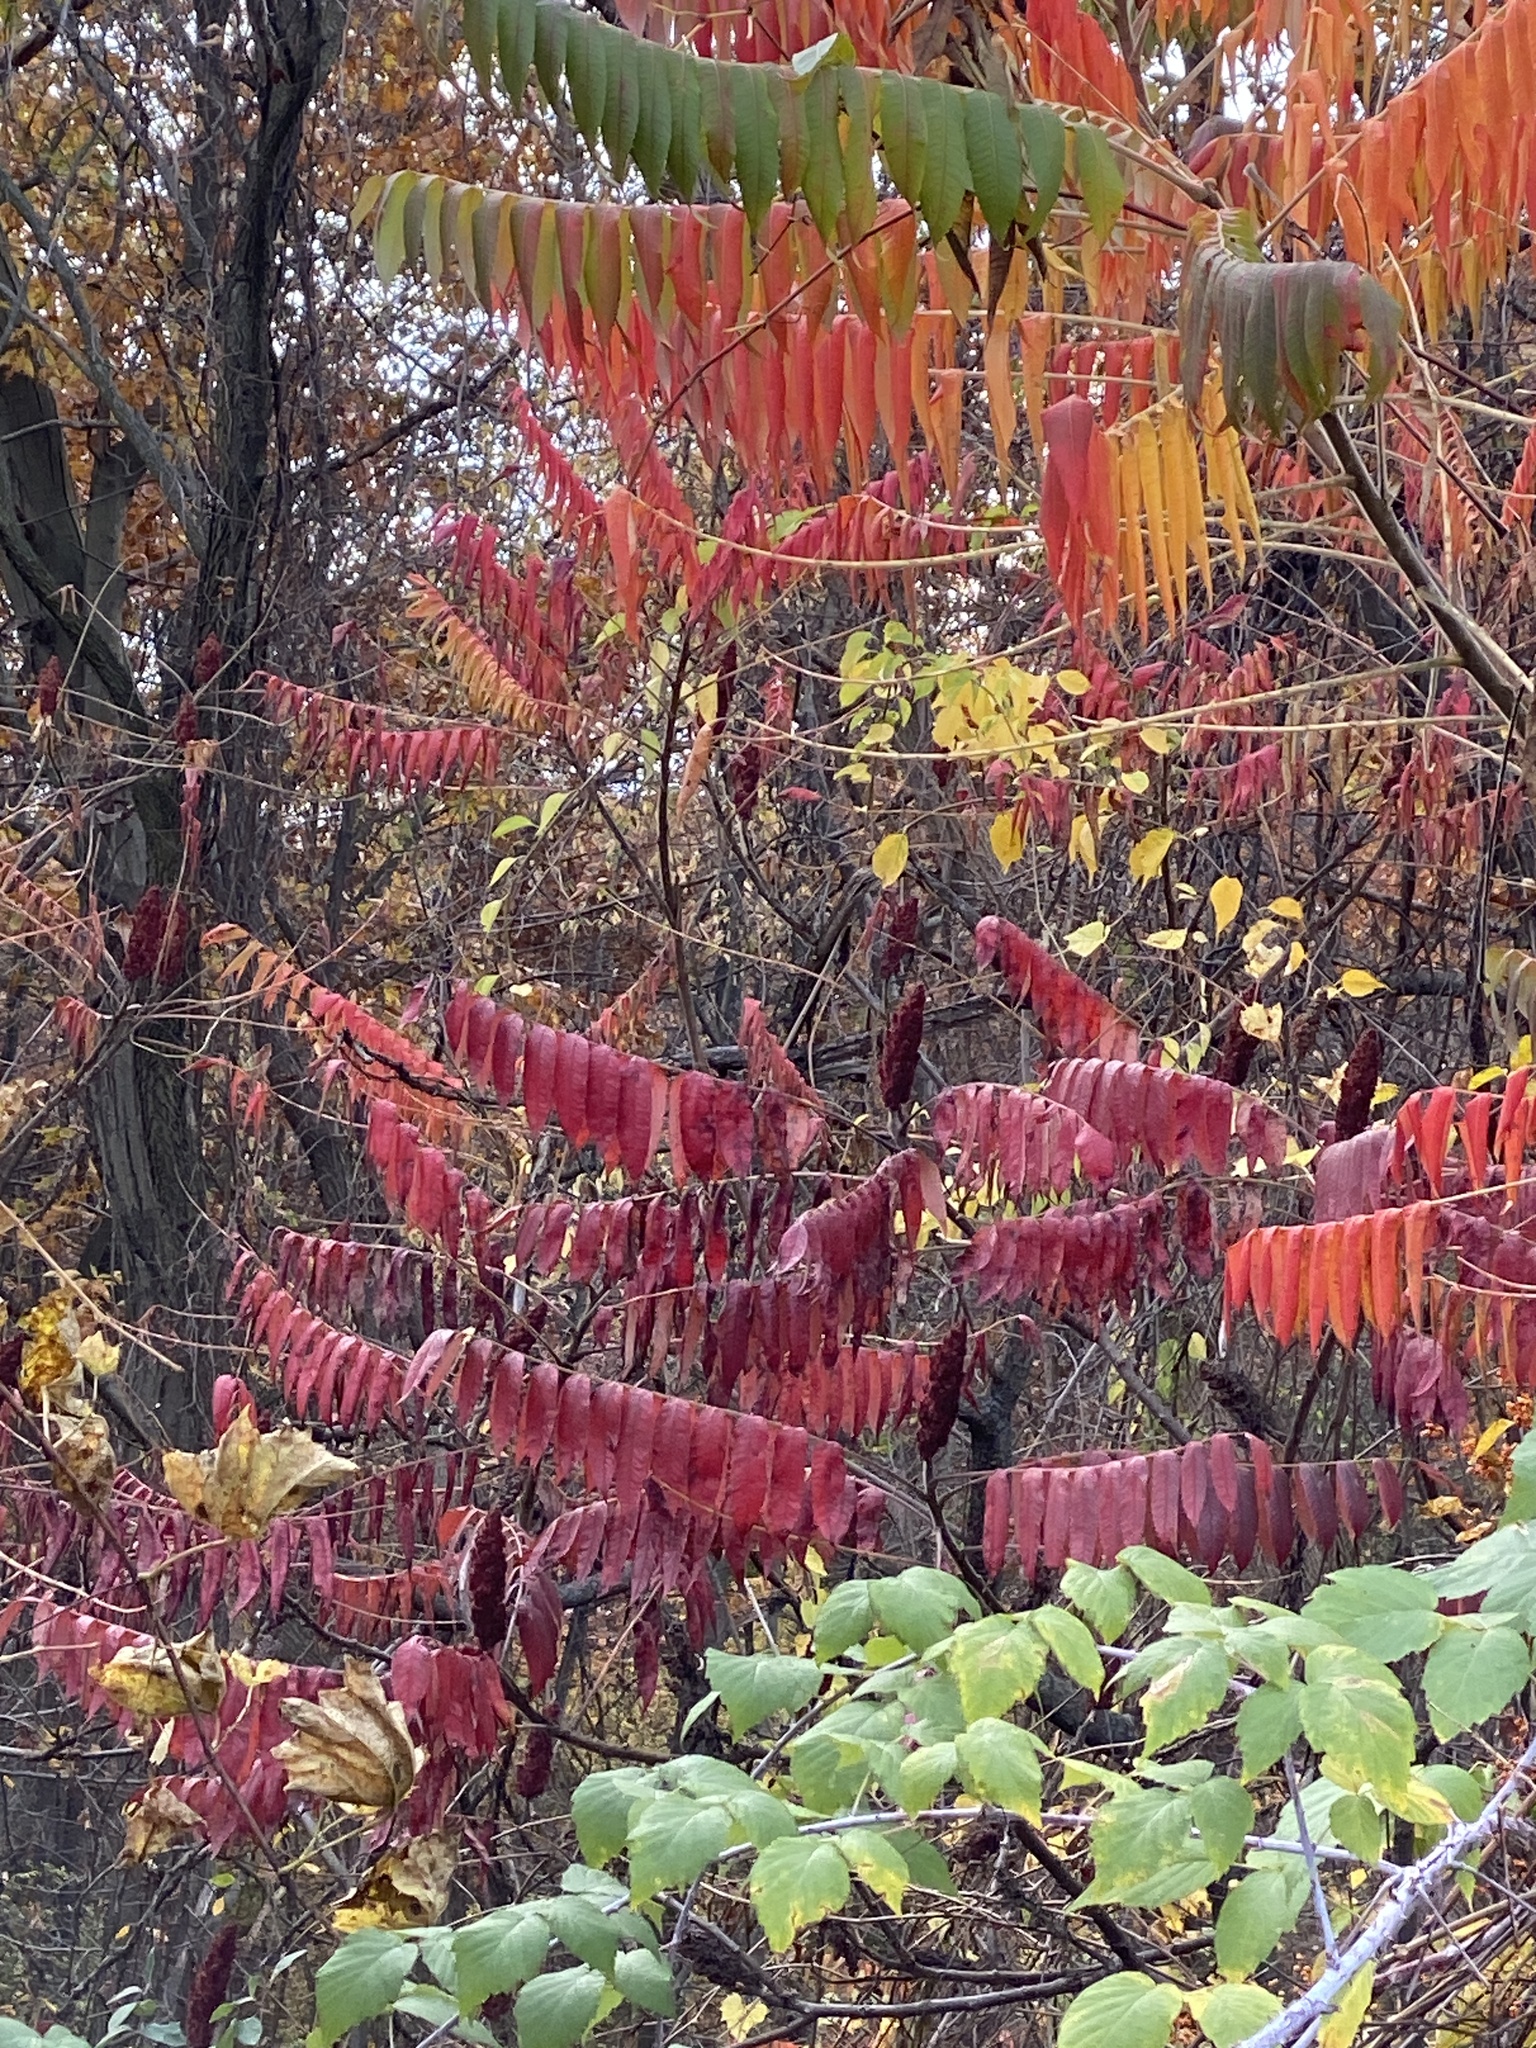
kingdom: Plantae
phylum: Tracheophyta
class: Magnoliopsida
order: Sapindales
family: Anacardiaceae
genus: Rhus
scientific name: Rhus typhina
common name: Staghorn sumac
